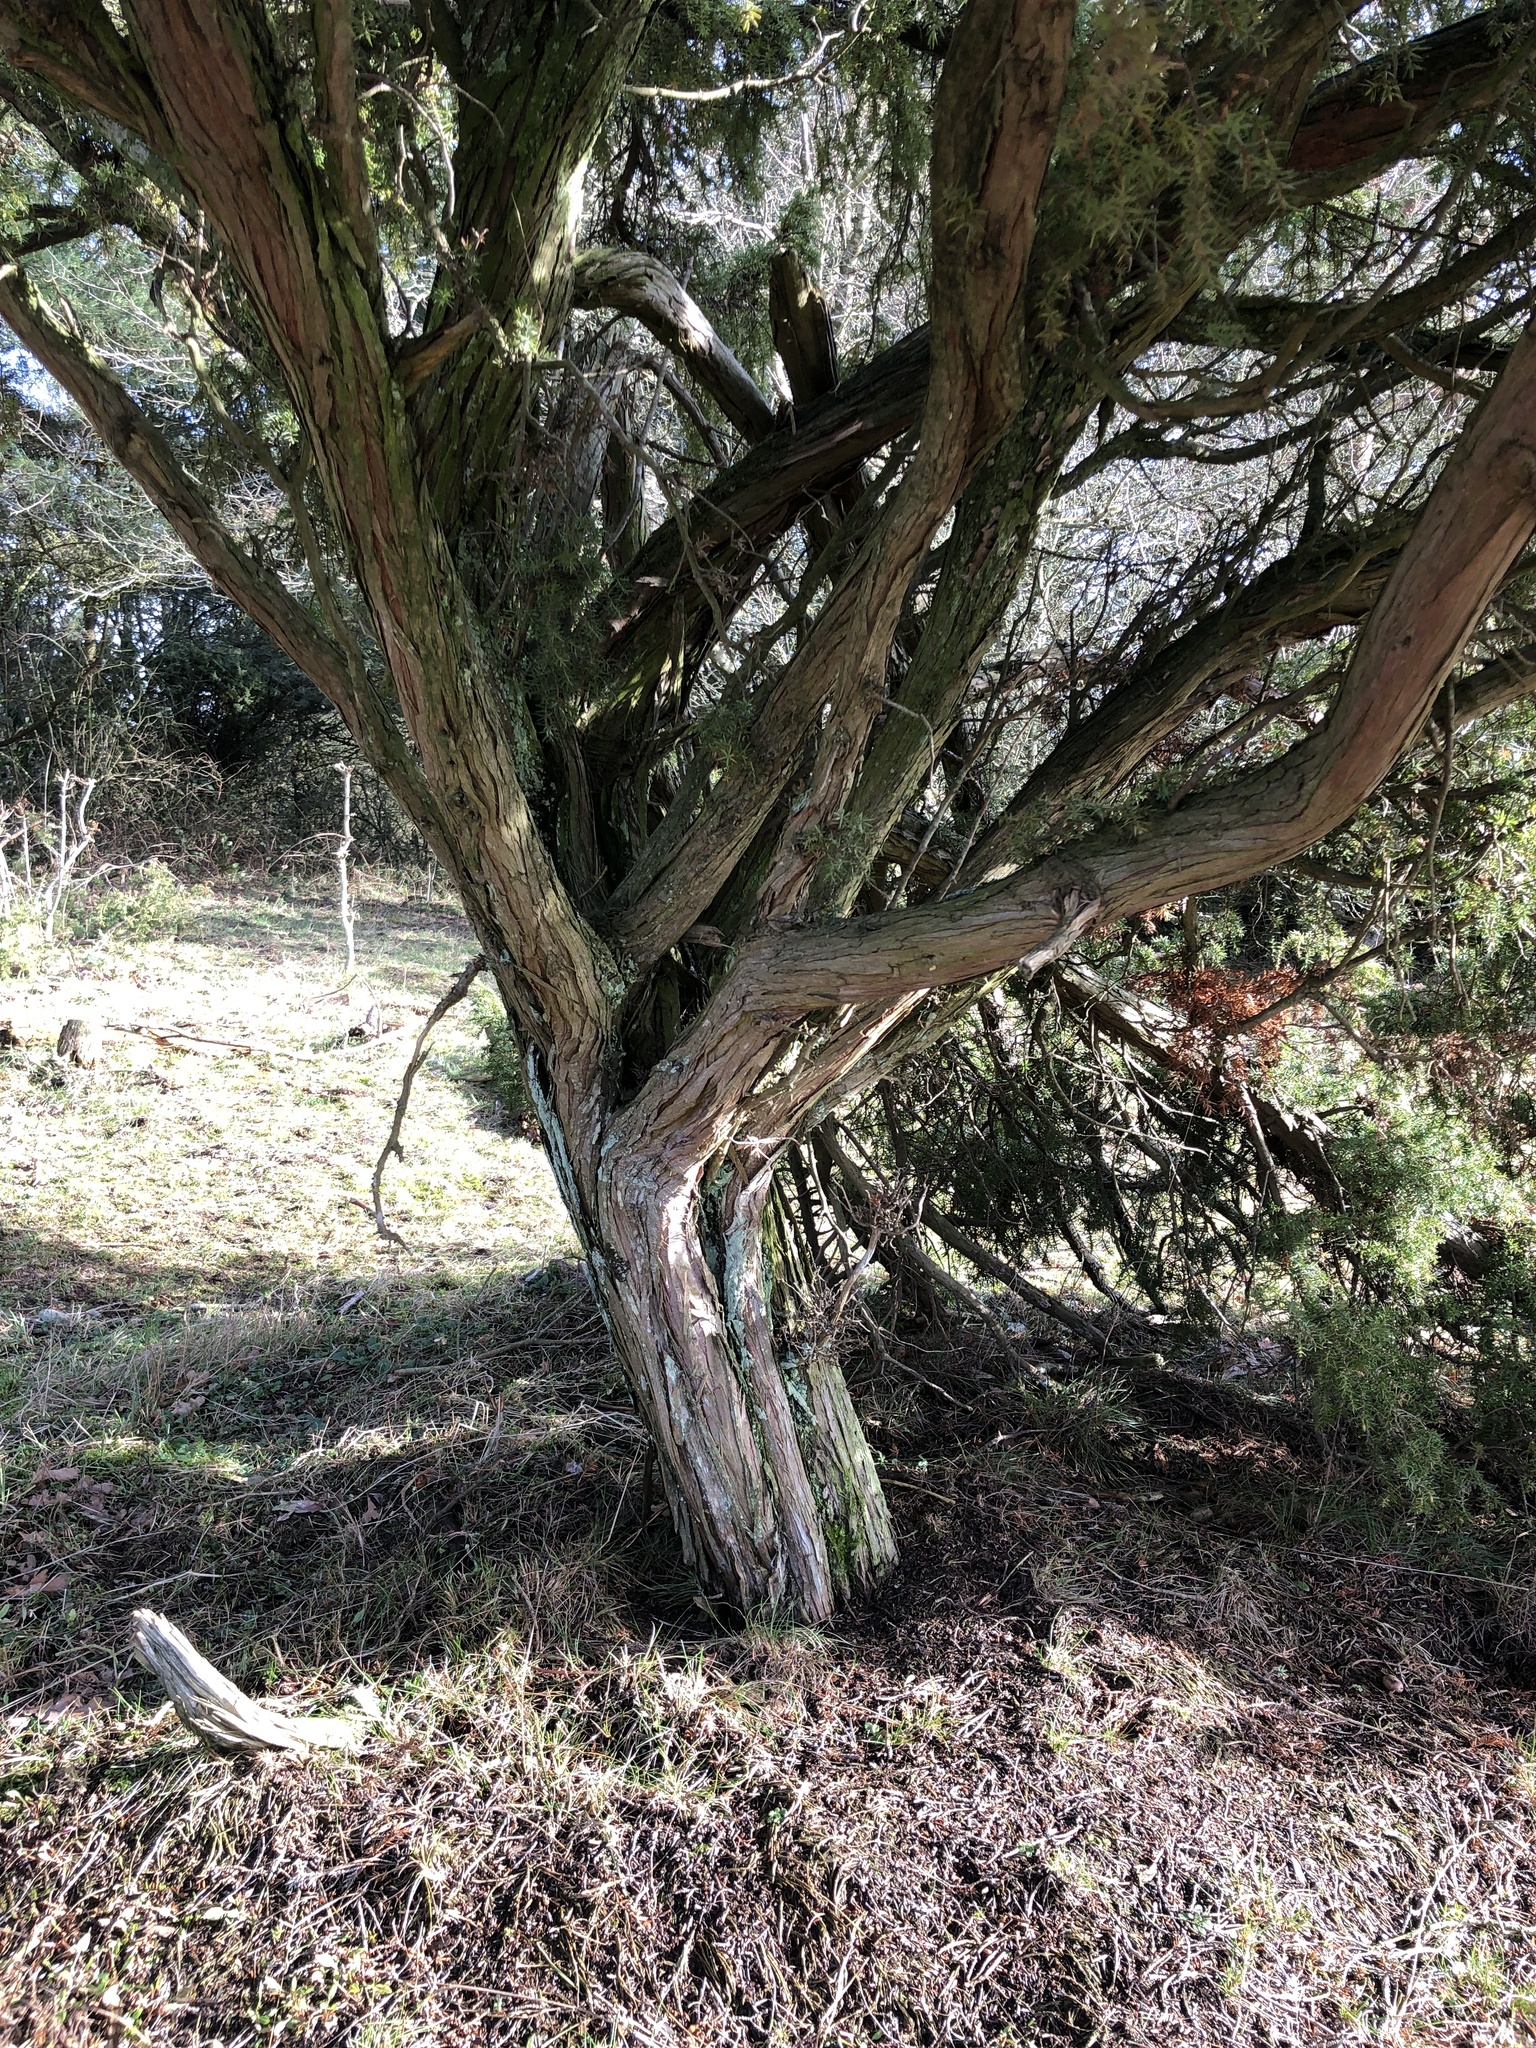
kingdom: Plantae
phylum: Tracheophyta
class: Pinopsida
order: Pinales
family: Cupressaceae
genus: Juniperus
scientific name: Juniperus communis
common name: Common juniper
